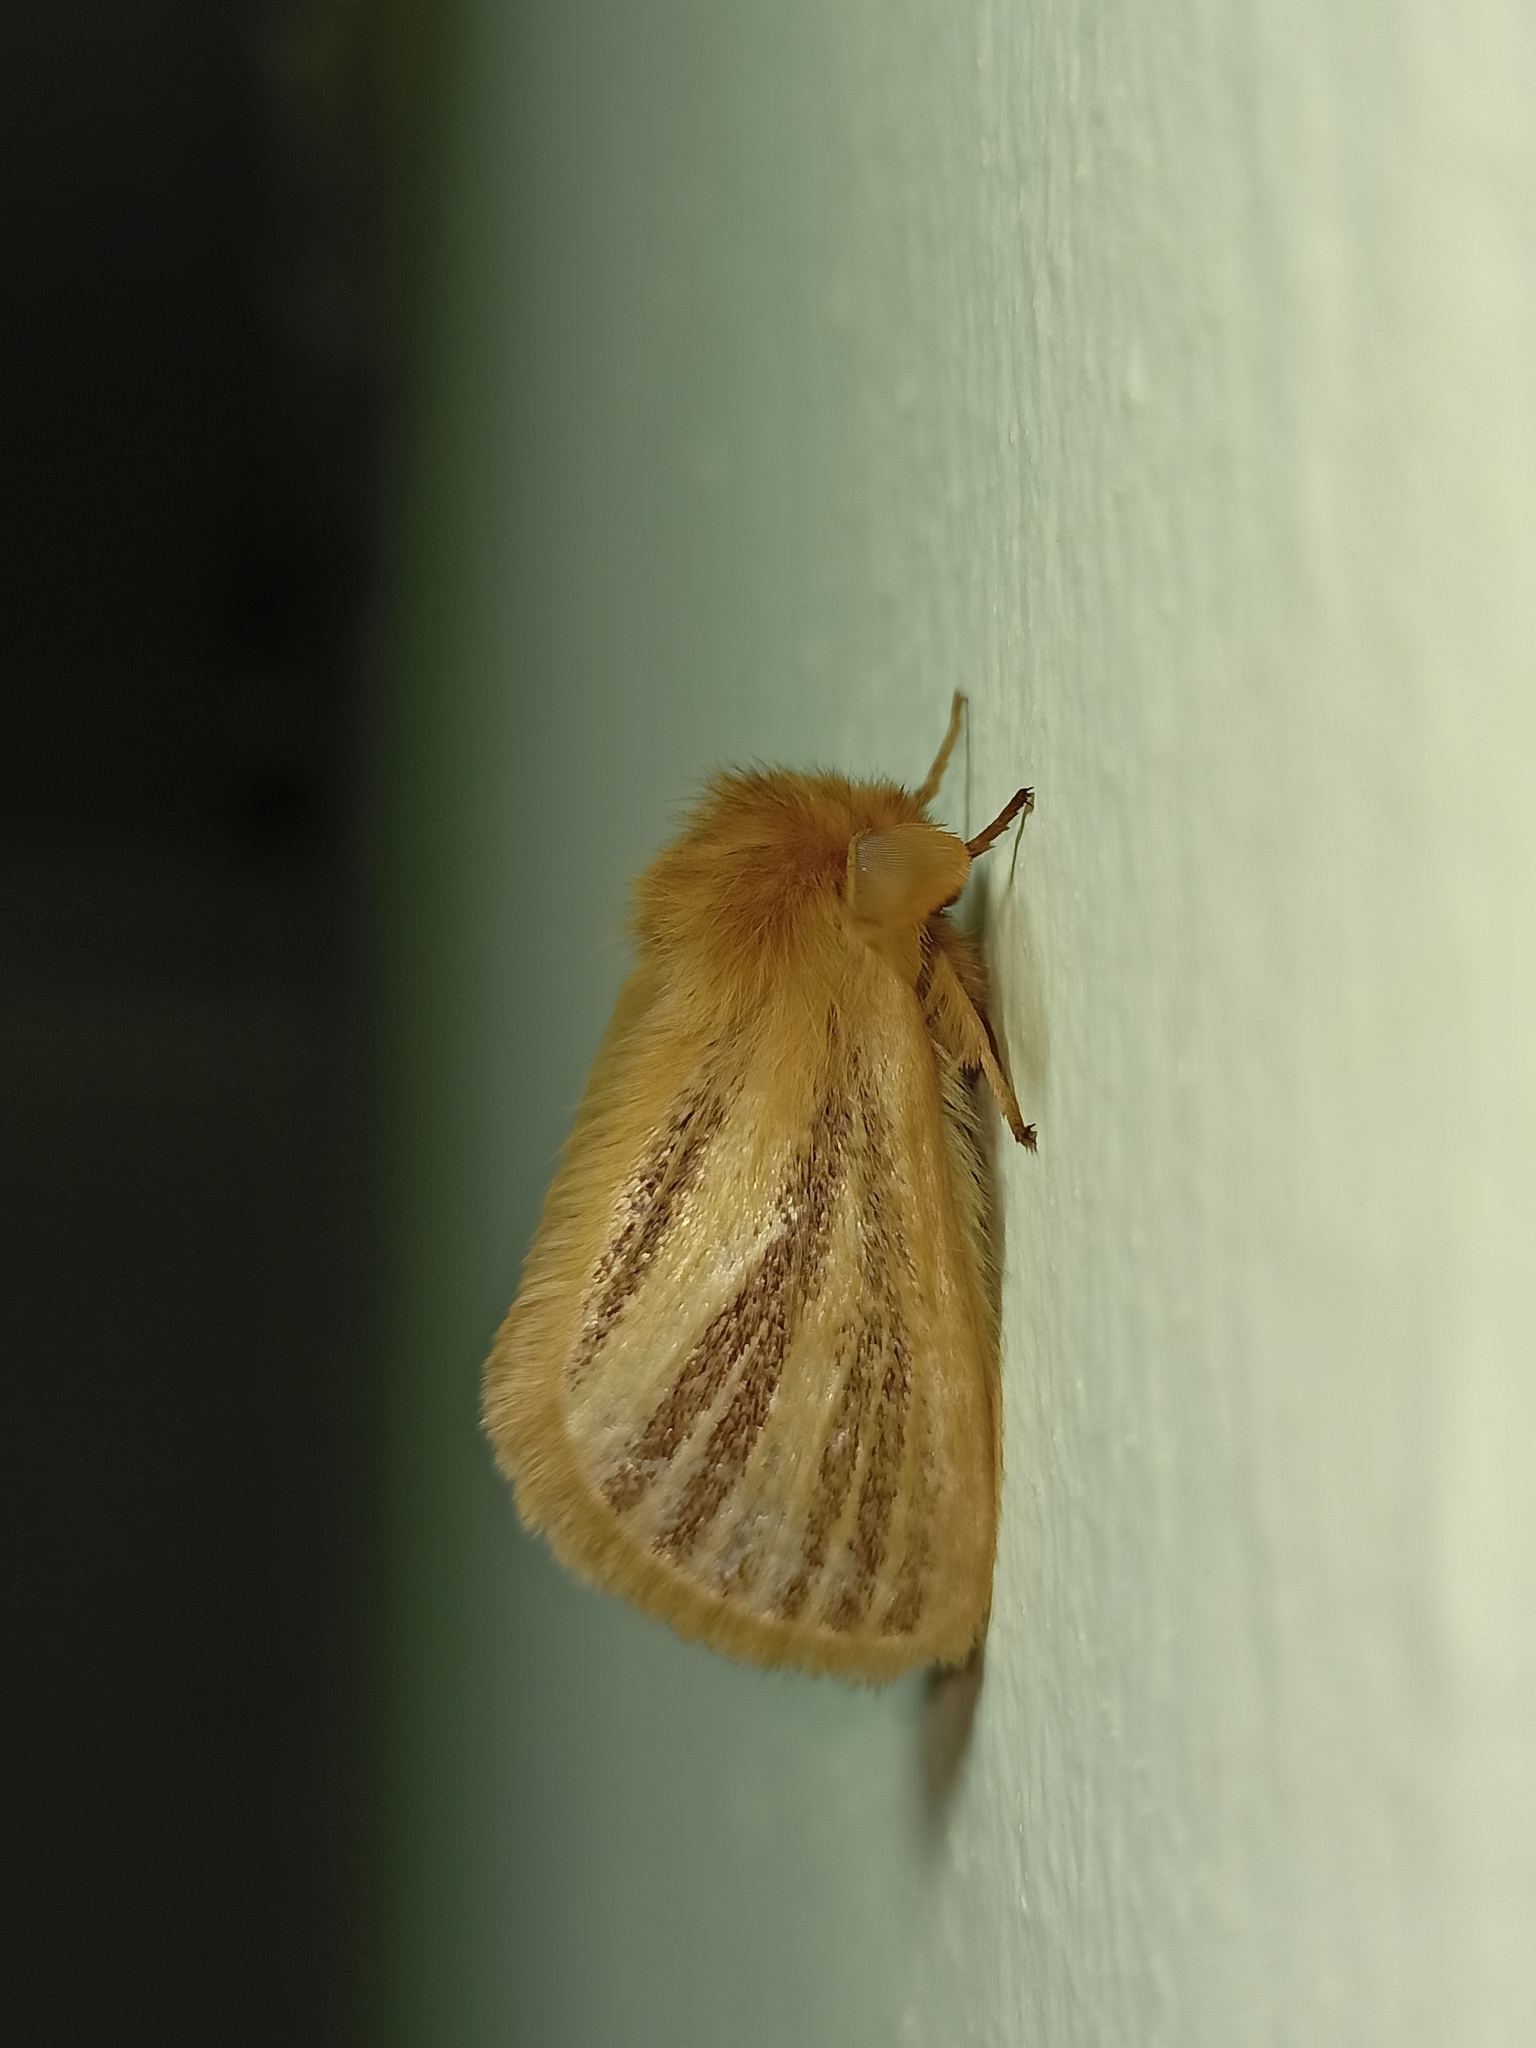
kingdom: Animalia
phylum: Arthropoda
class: Insecta
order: Lepidoptera
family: Eupterotidae
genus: Nisaga
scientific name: Nisaga simplex
